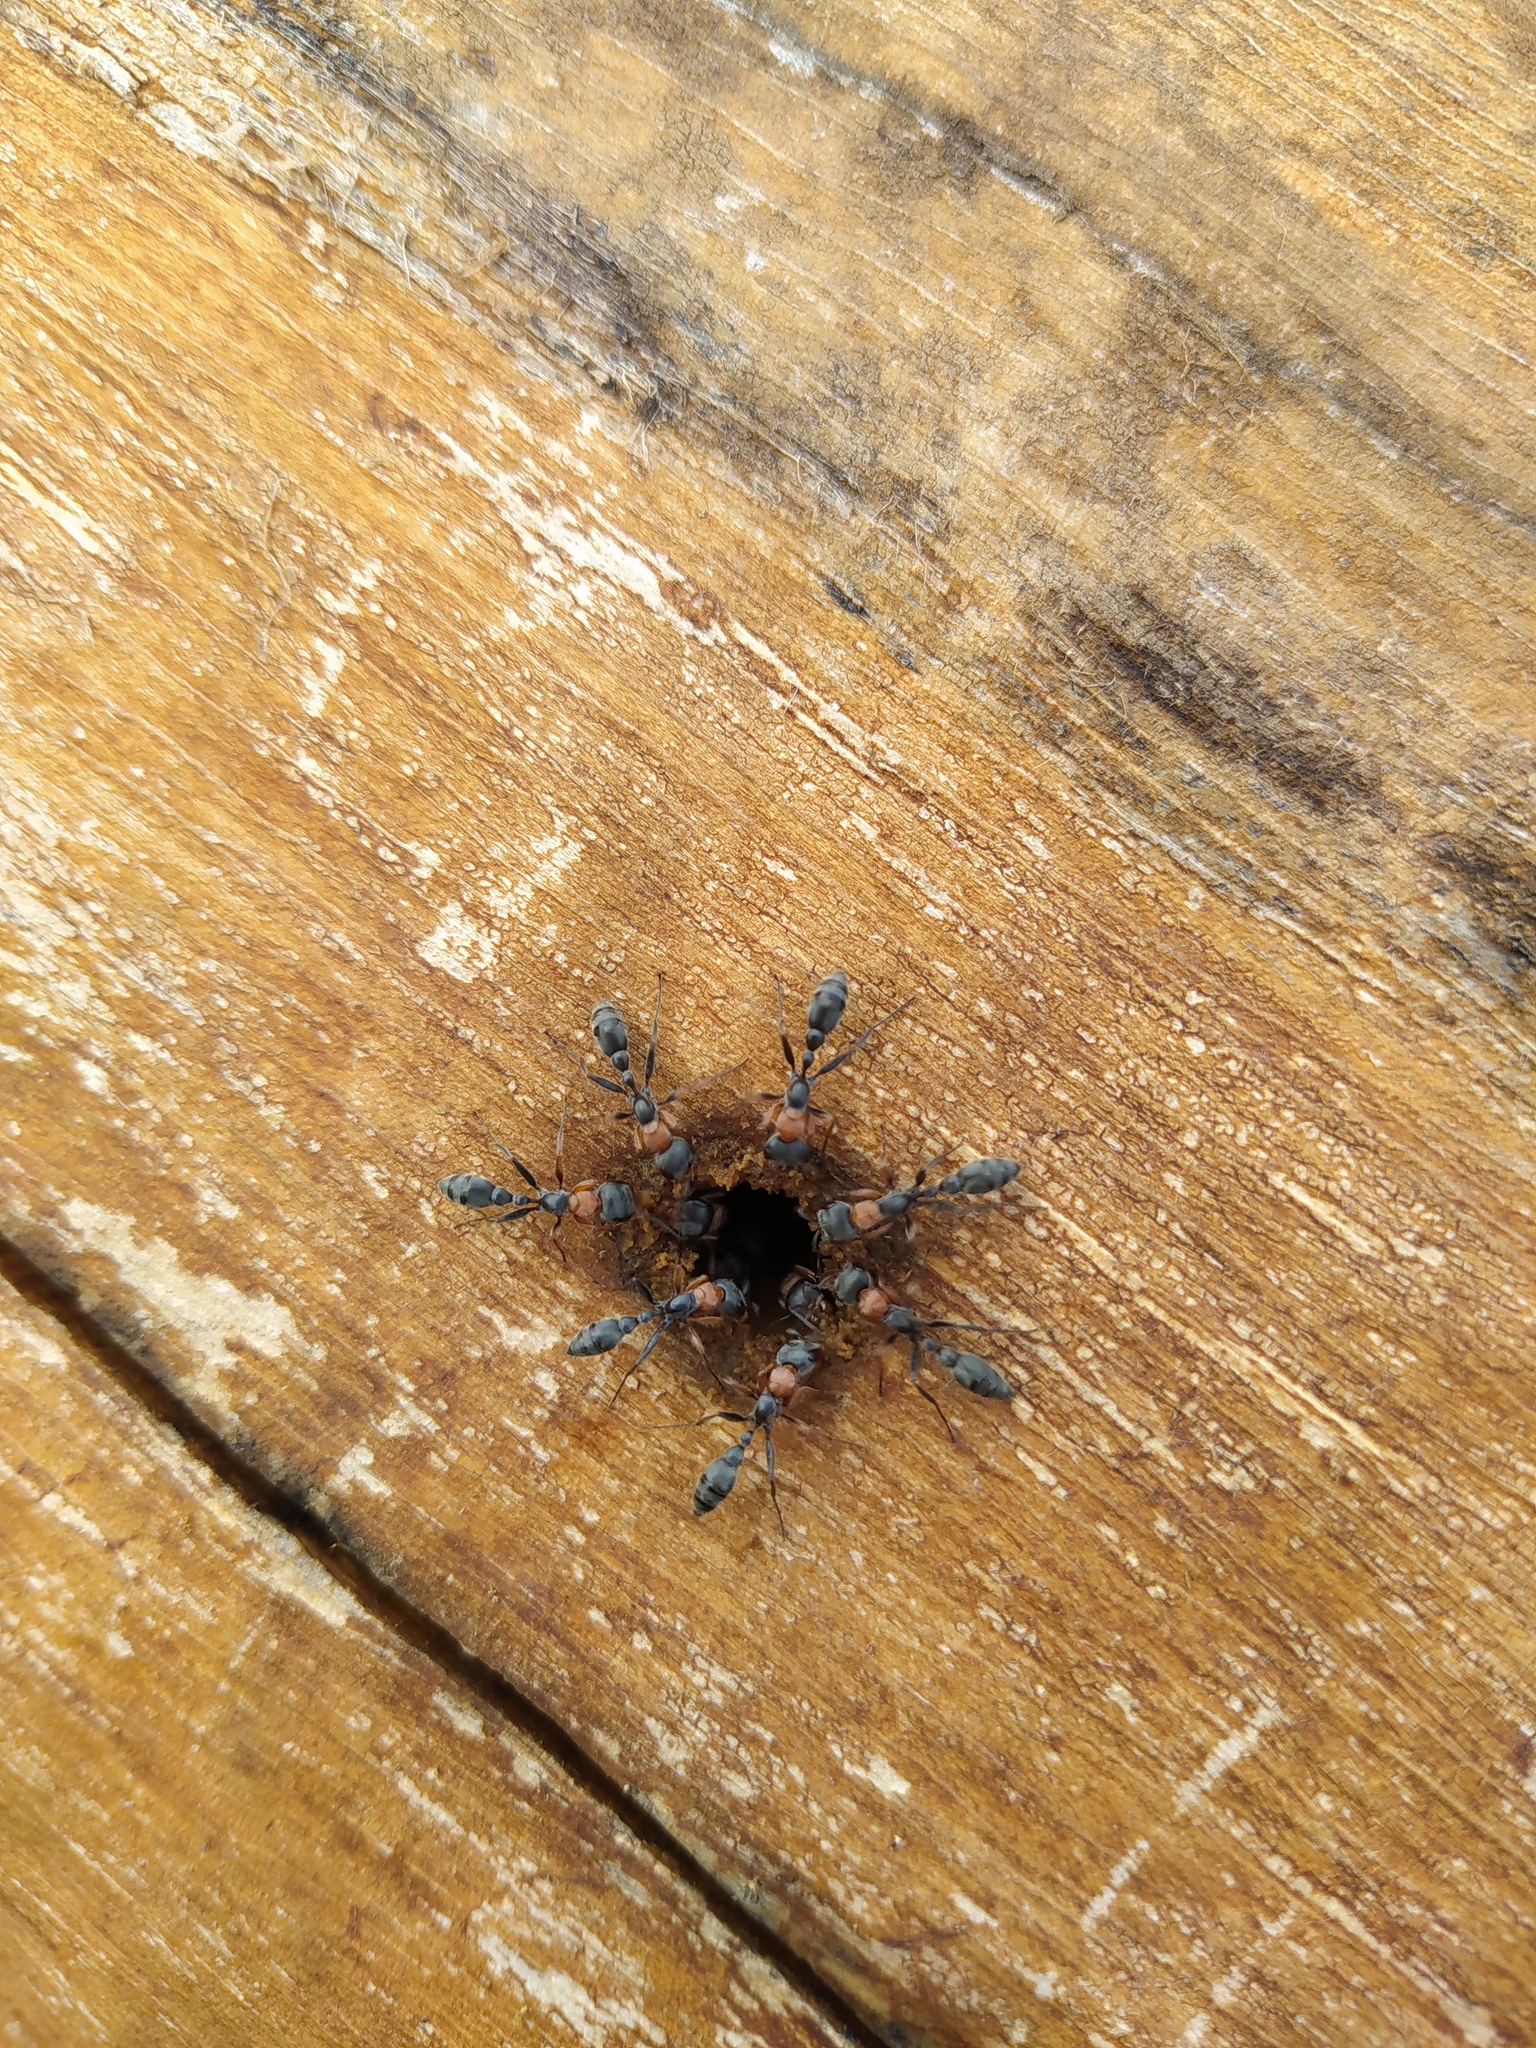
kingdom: Animalia
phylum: Arthropoda
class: Insecta
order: Hymenoptera
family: Formicidae
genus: Pseudomyrmex
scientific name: Pseudomyrmex gracilis
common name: Graceful twig ant
